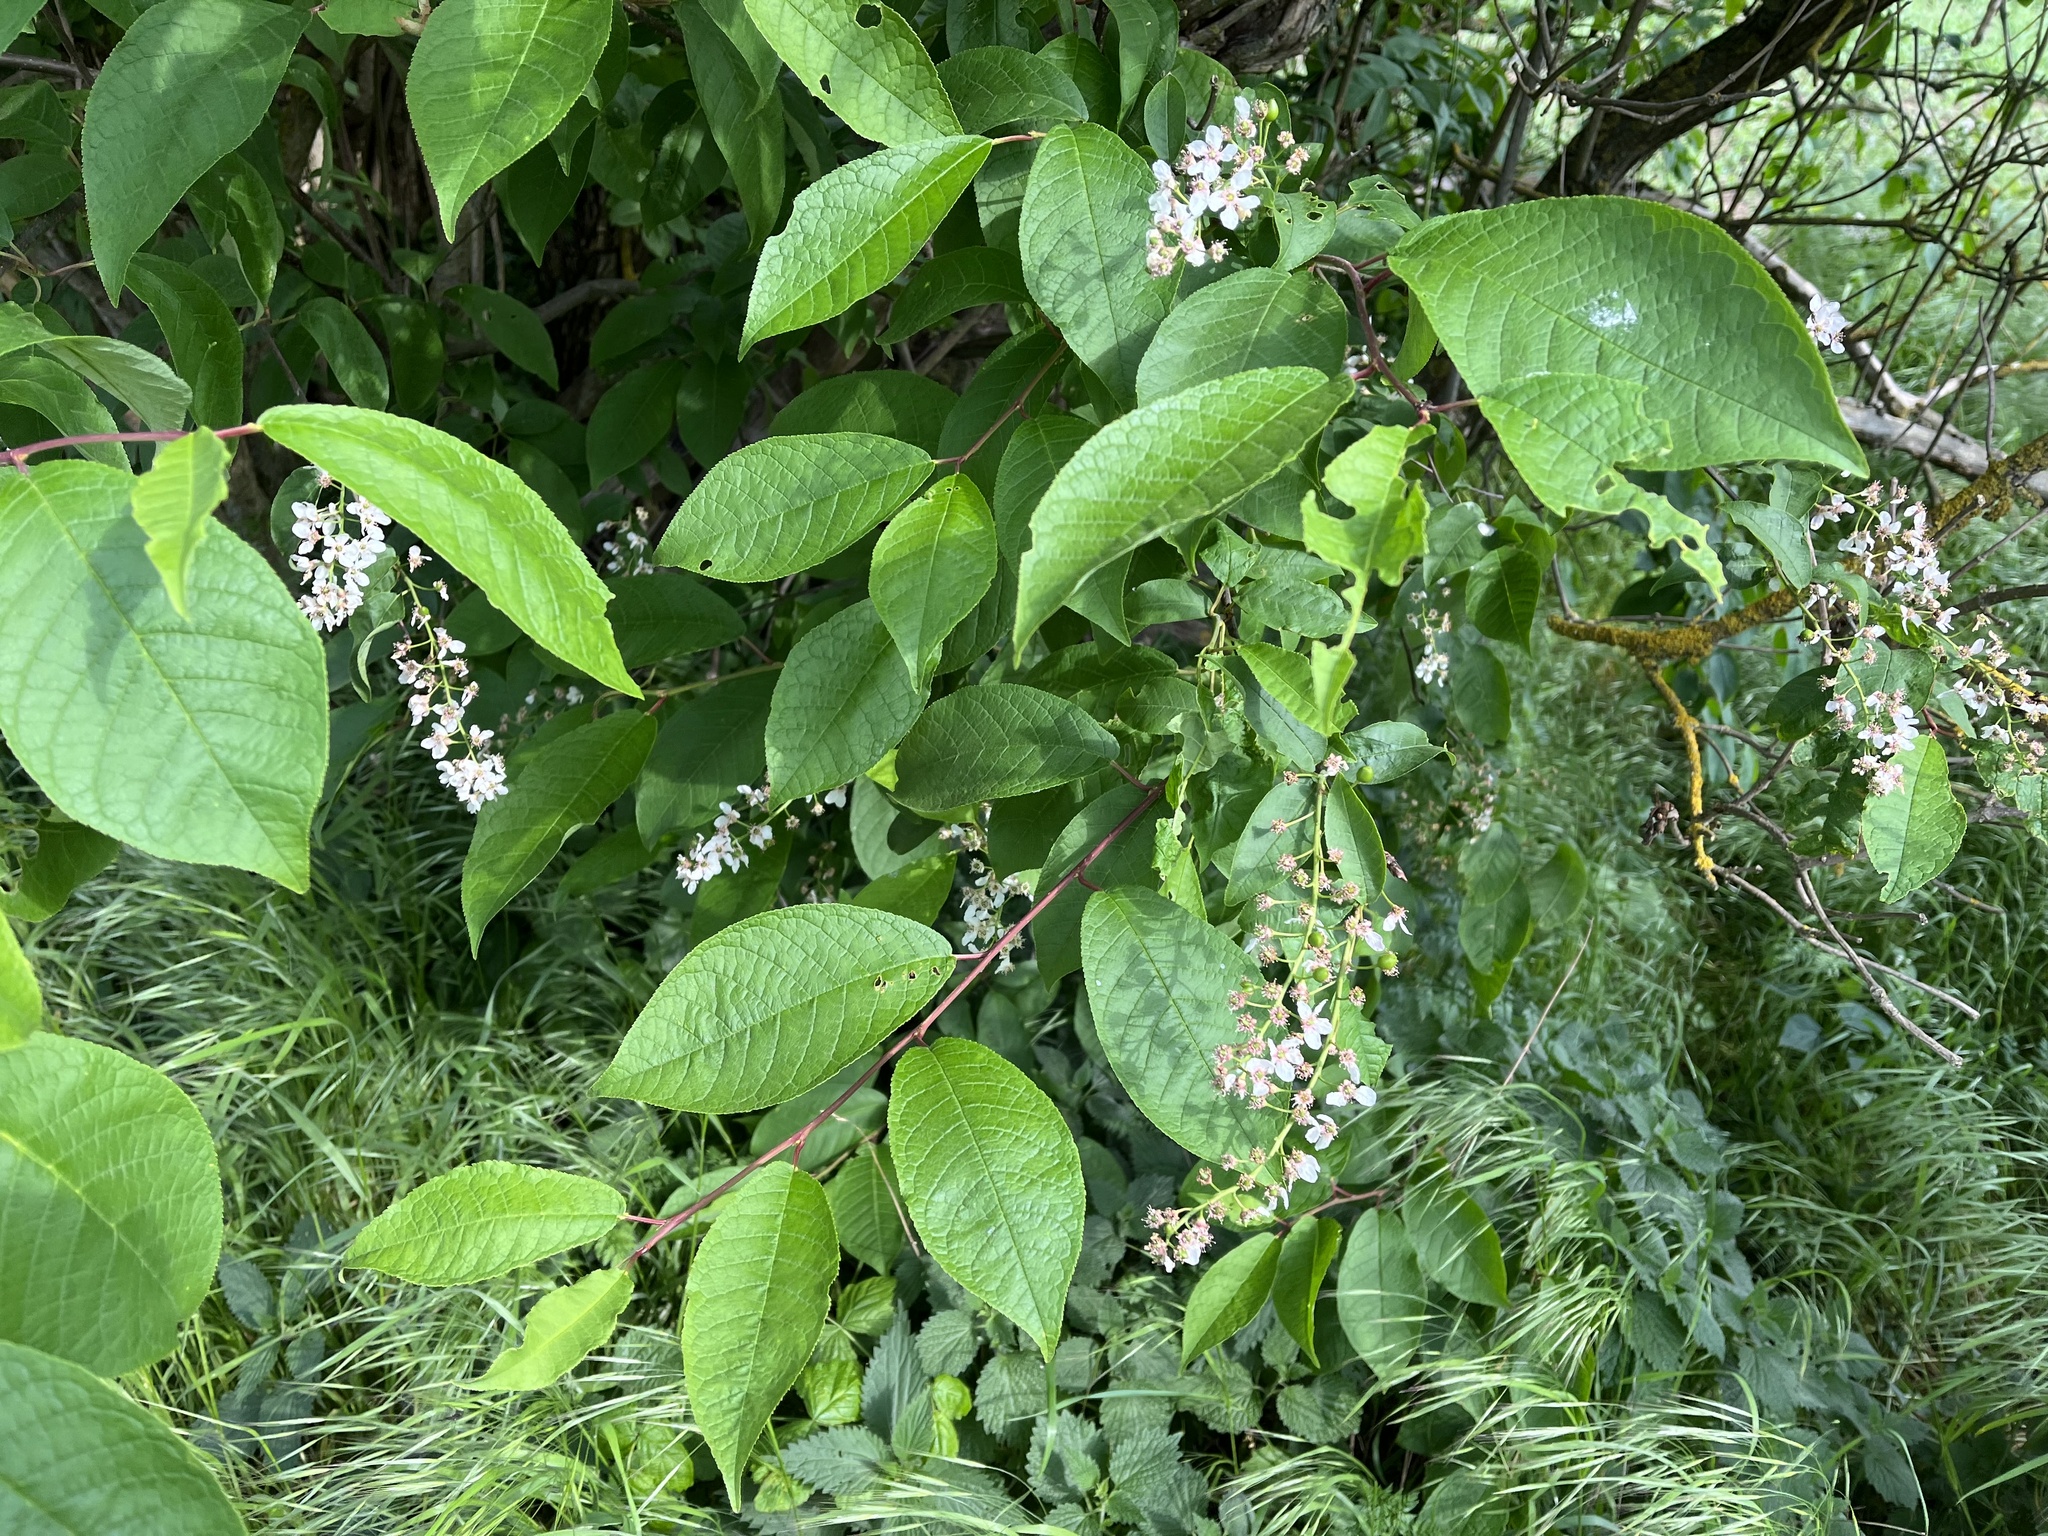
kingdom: Plantae
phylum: Tracheophyta
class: Magnoliopsida
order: Rosales
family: Rosaceae
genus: Prunus
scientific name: Prunus padus
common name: Bird cherry
